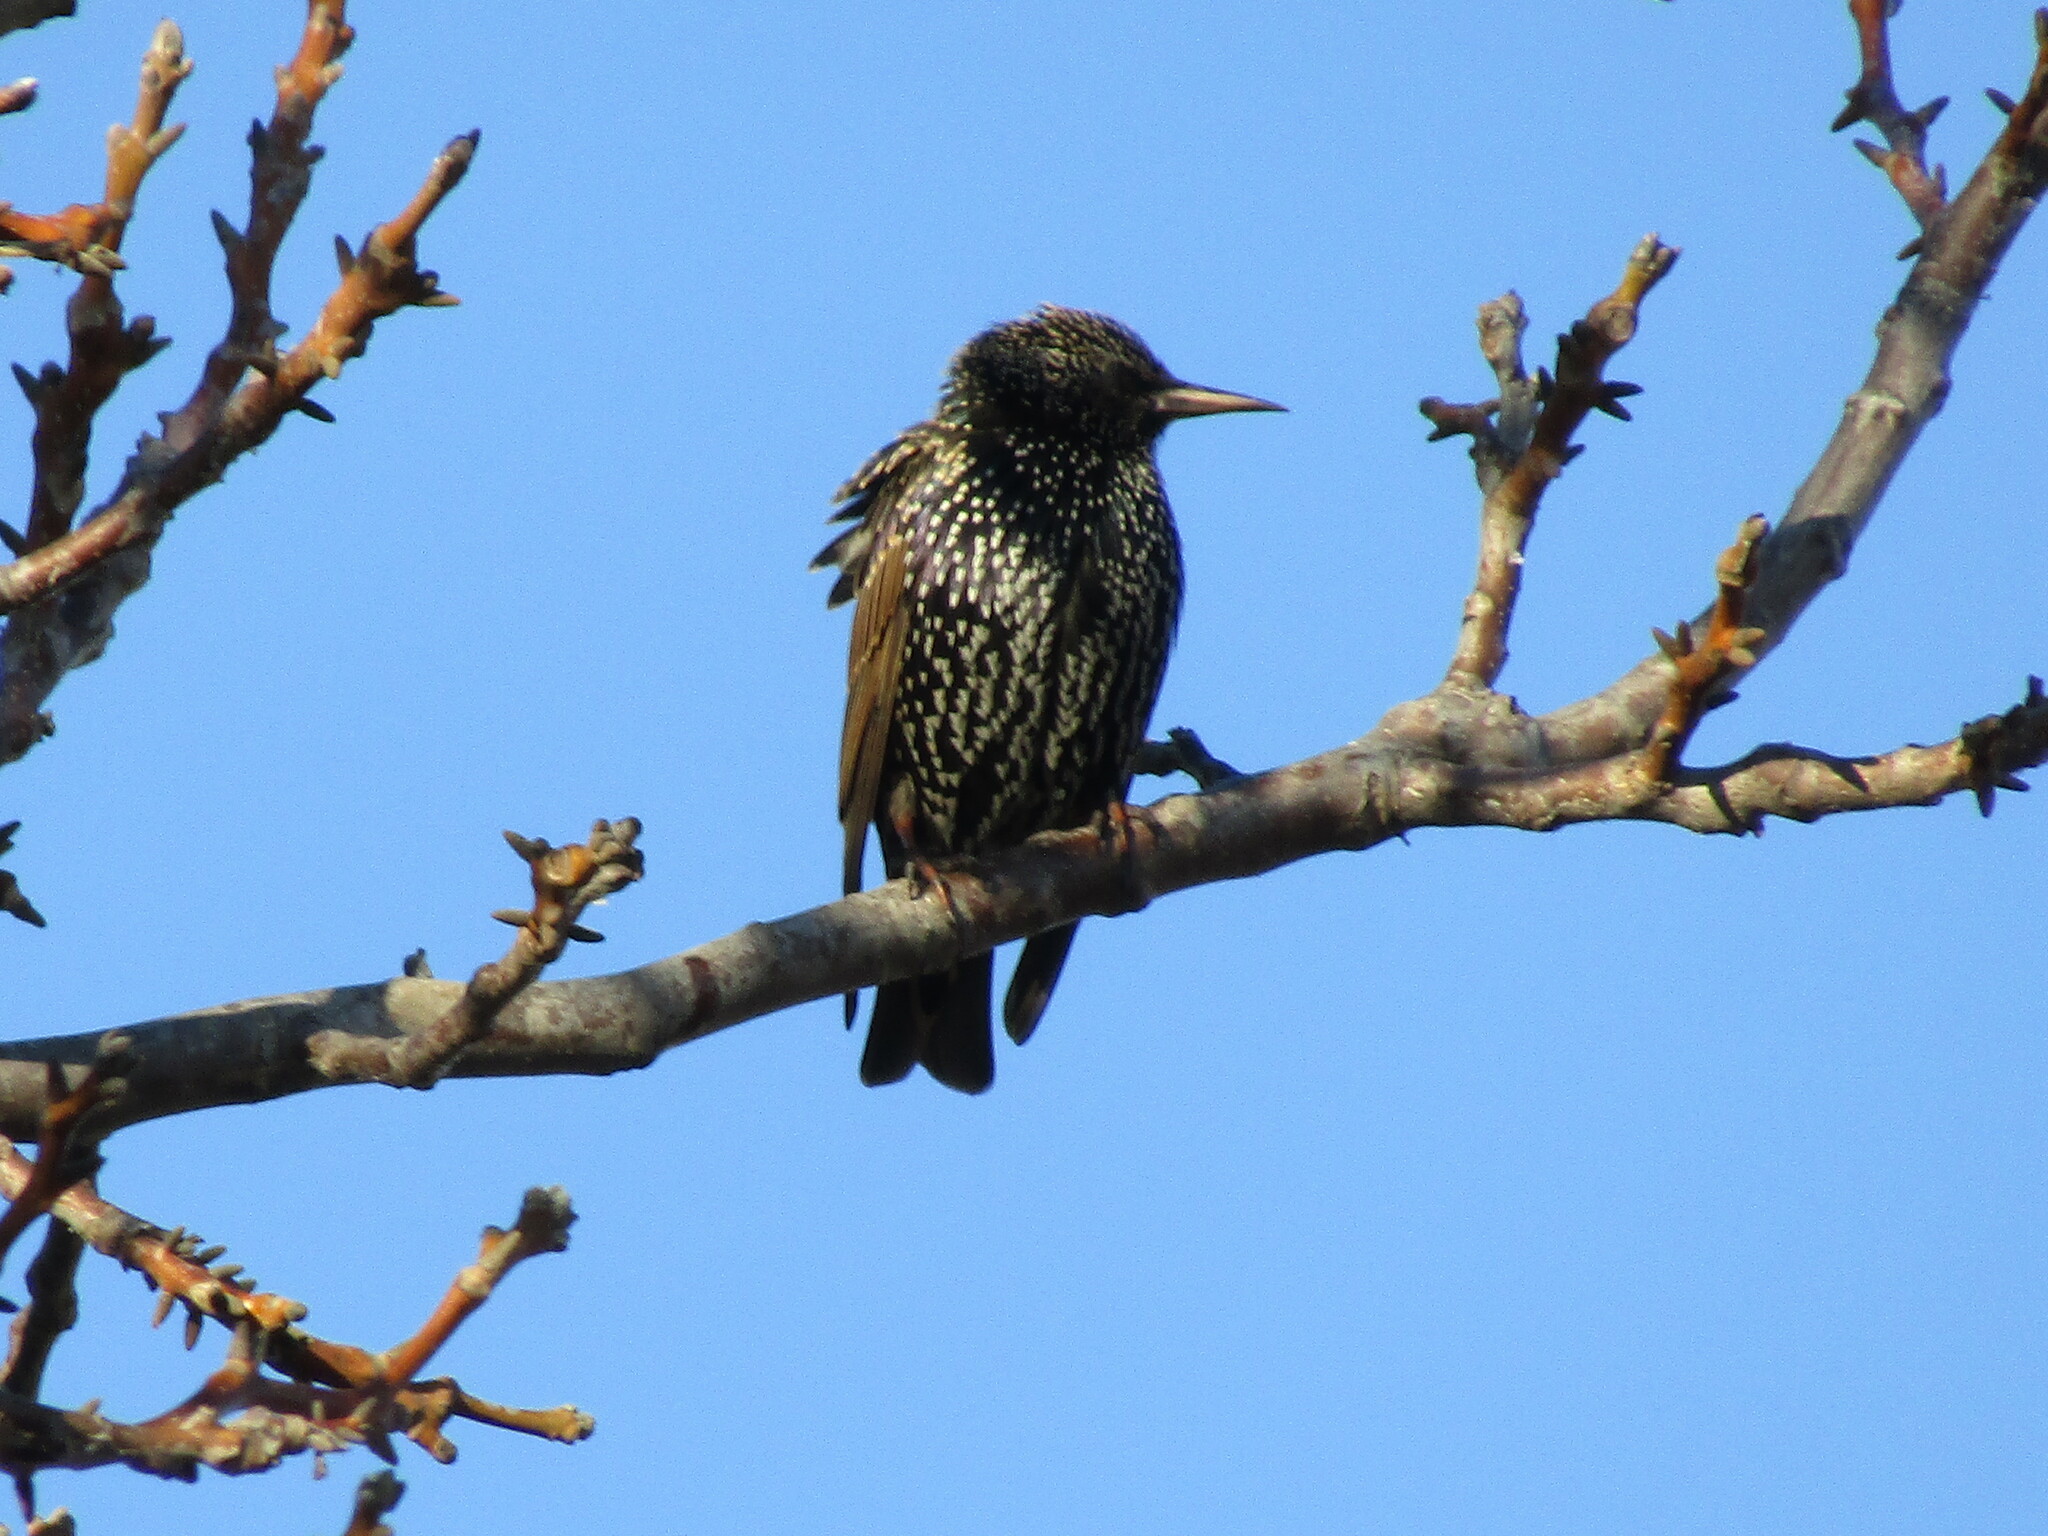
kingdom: Animalia
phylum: Chordata
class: Aves
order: Passeriformes
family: Sturnidae
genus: Sturnus
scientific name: Sturnus vulgaris
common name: Common starling
